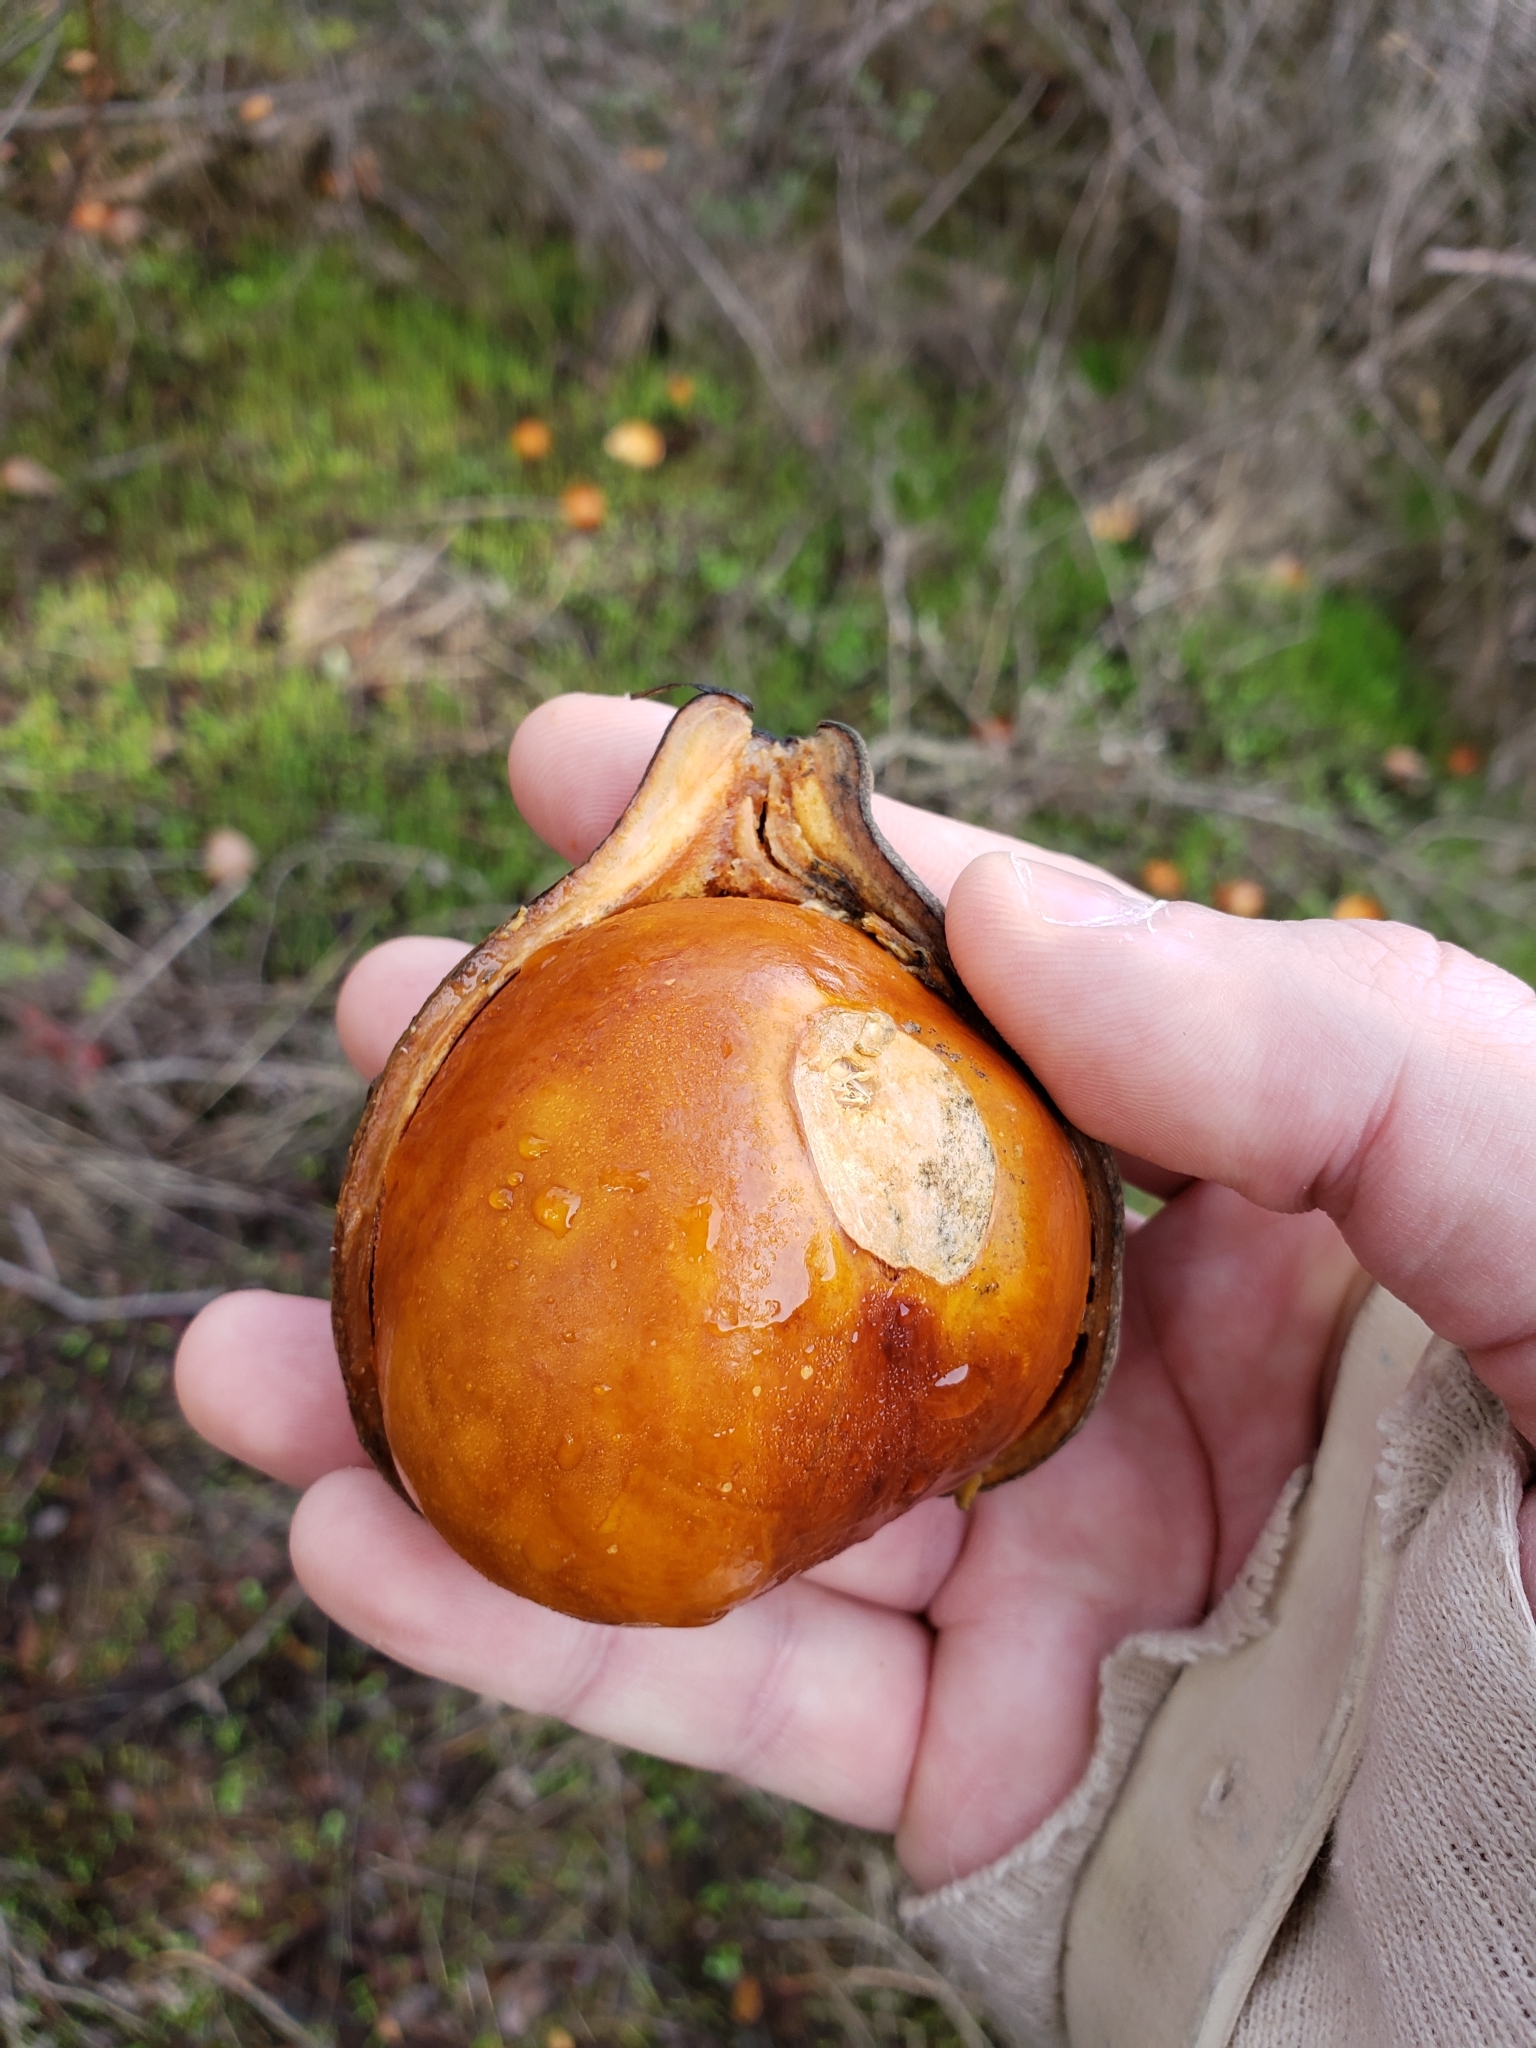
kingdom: Plantae
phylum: Tracheophyta
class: Magnoliopsida
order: Sapindales
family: Sapindaceae
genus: Aesculus
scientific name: Aesculus californica
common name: California buckeye
